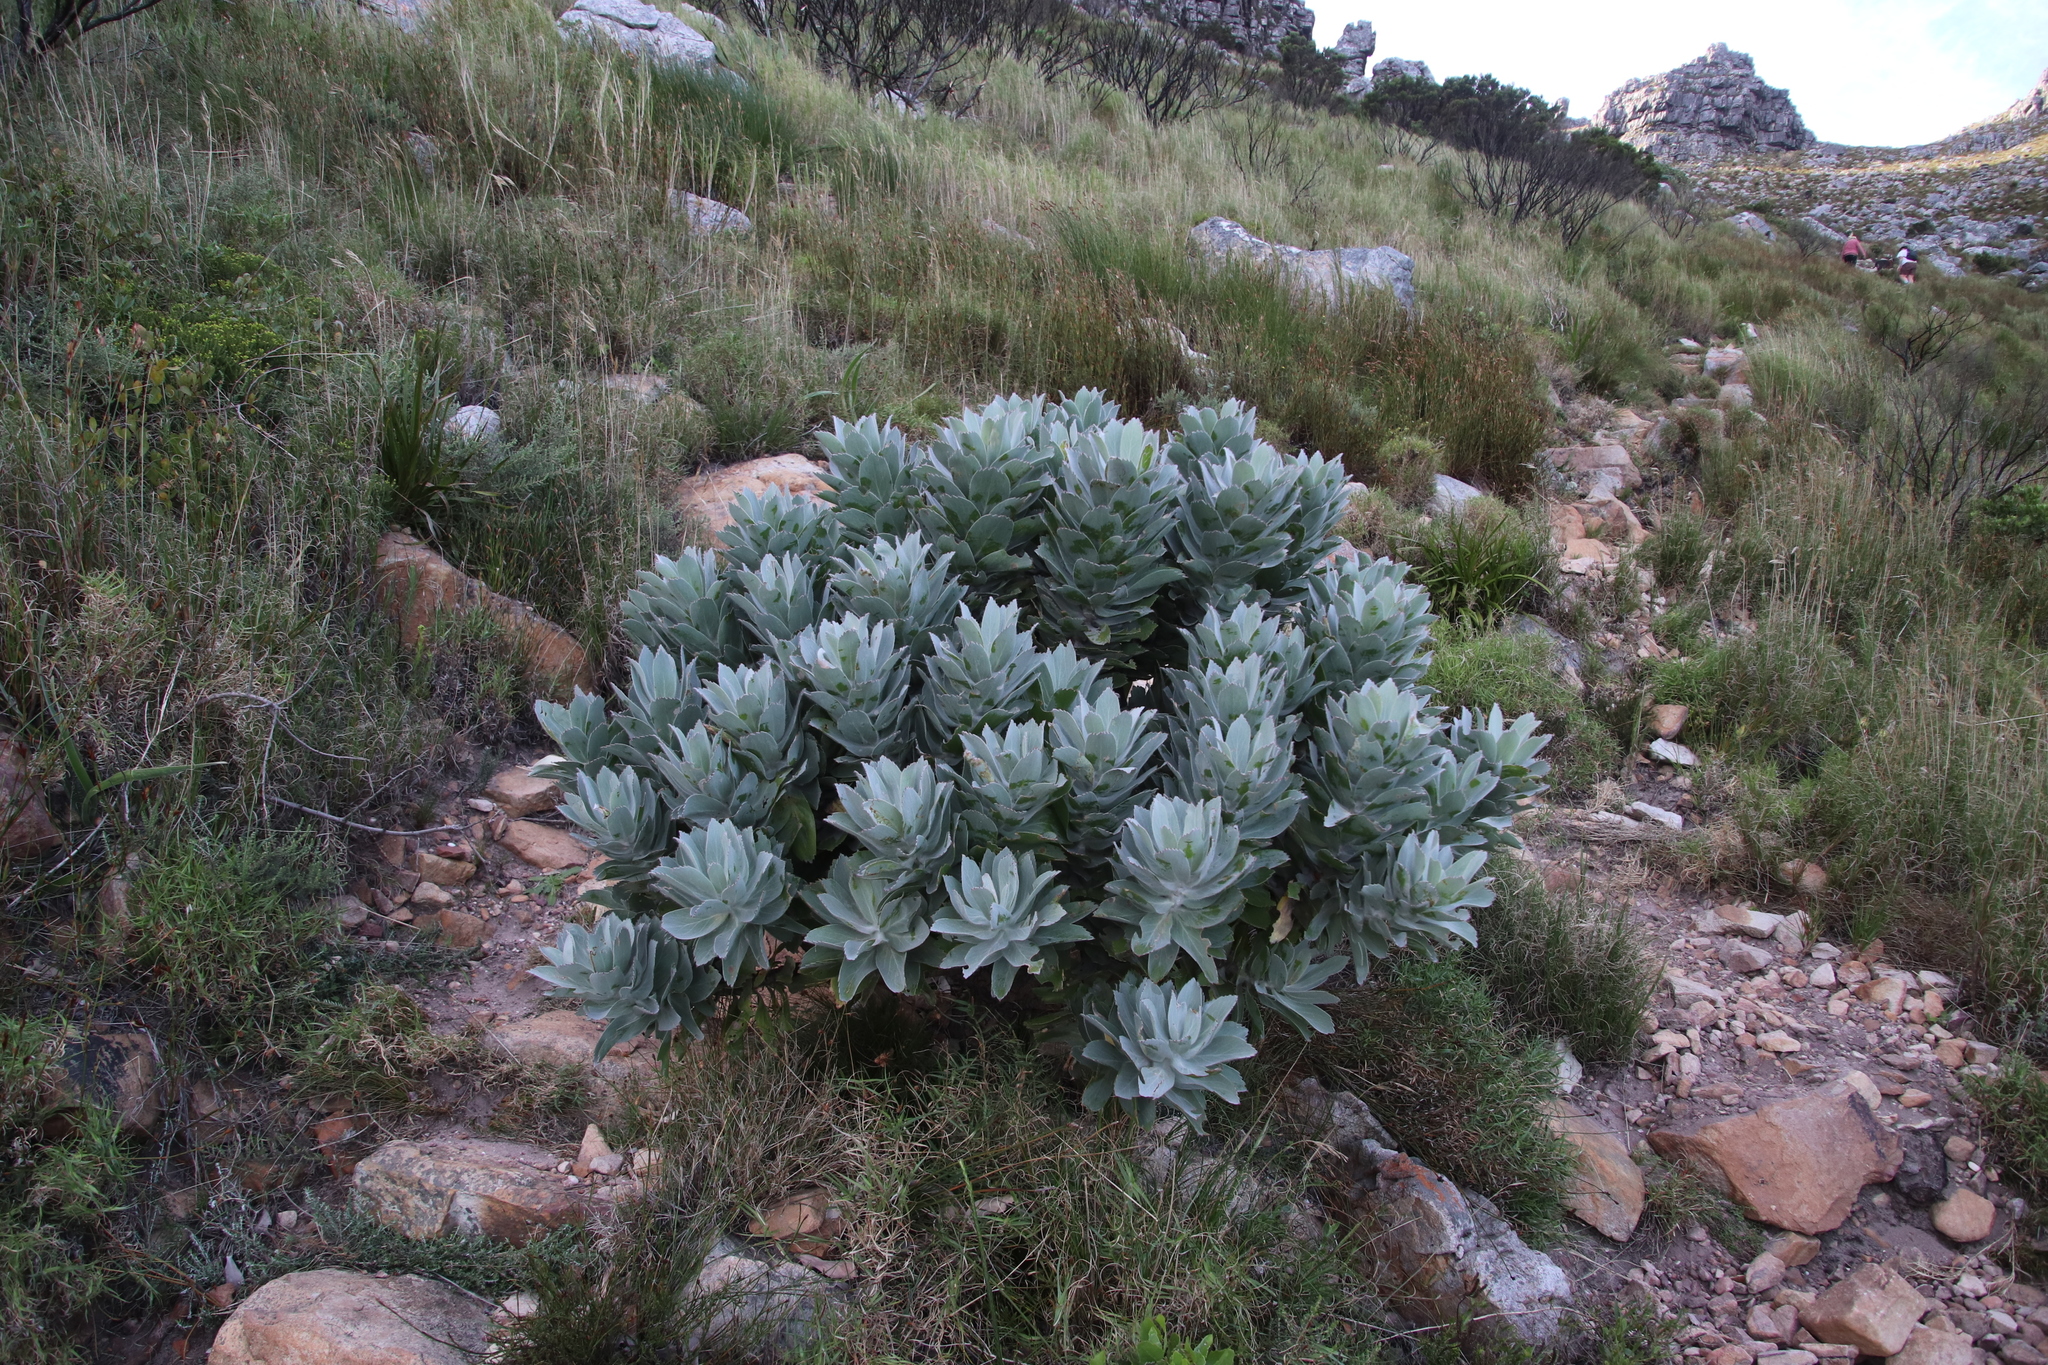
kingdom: Plantae
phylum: Tracheophyta
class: Magnoliopsida
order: Proteales
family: Proteaceae
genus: Leucospermum
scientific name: Leucospermum conocarpodendron
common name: Tree pincushion
